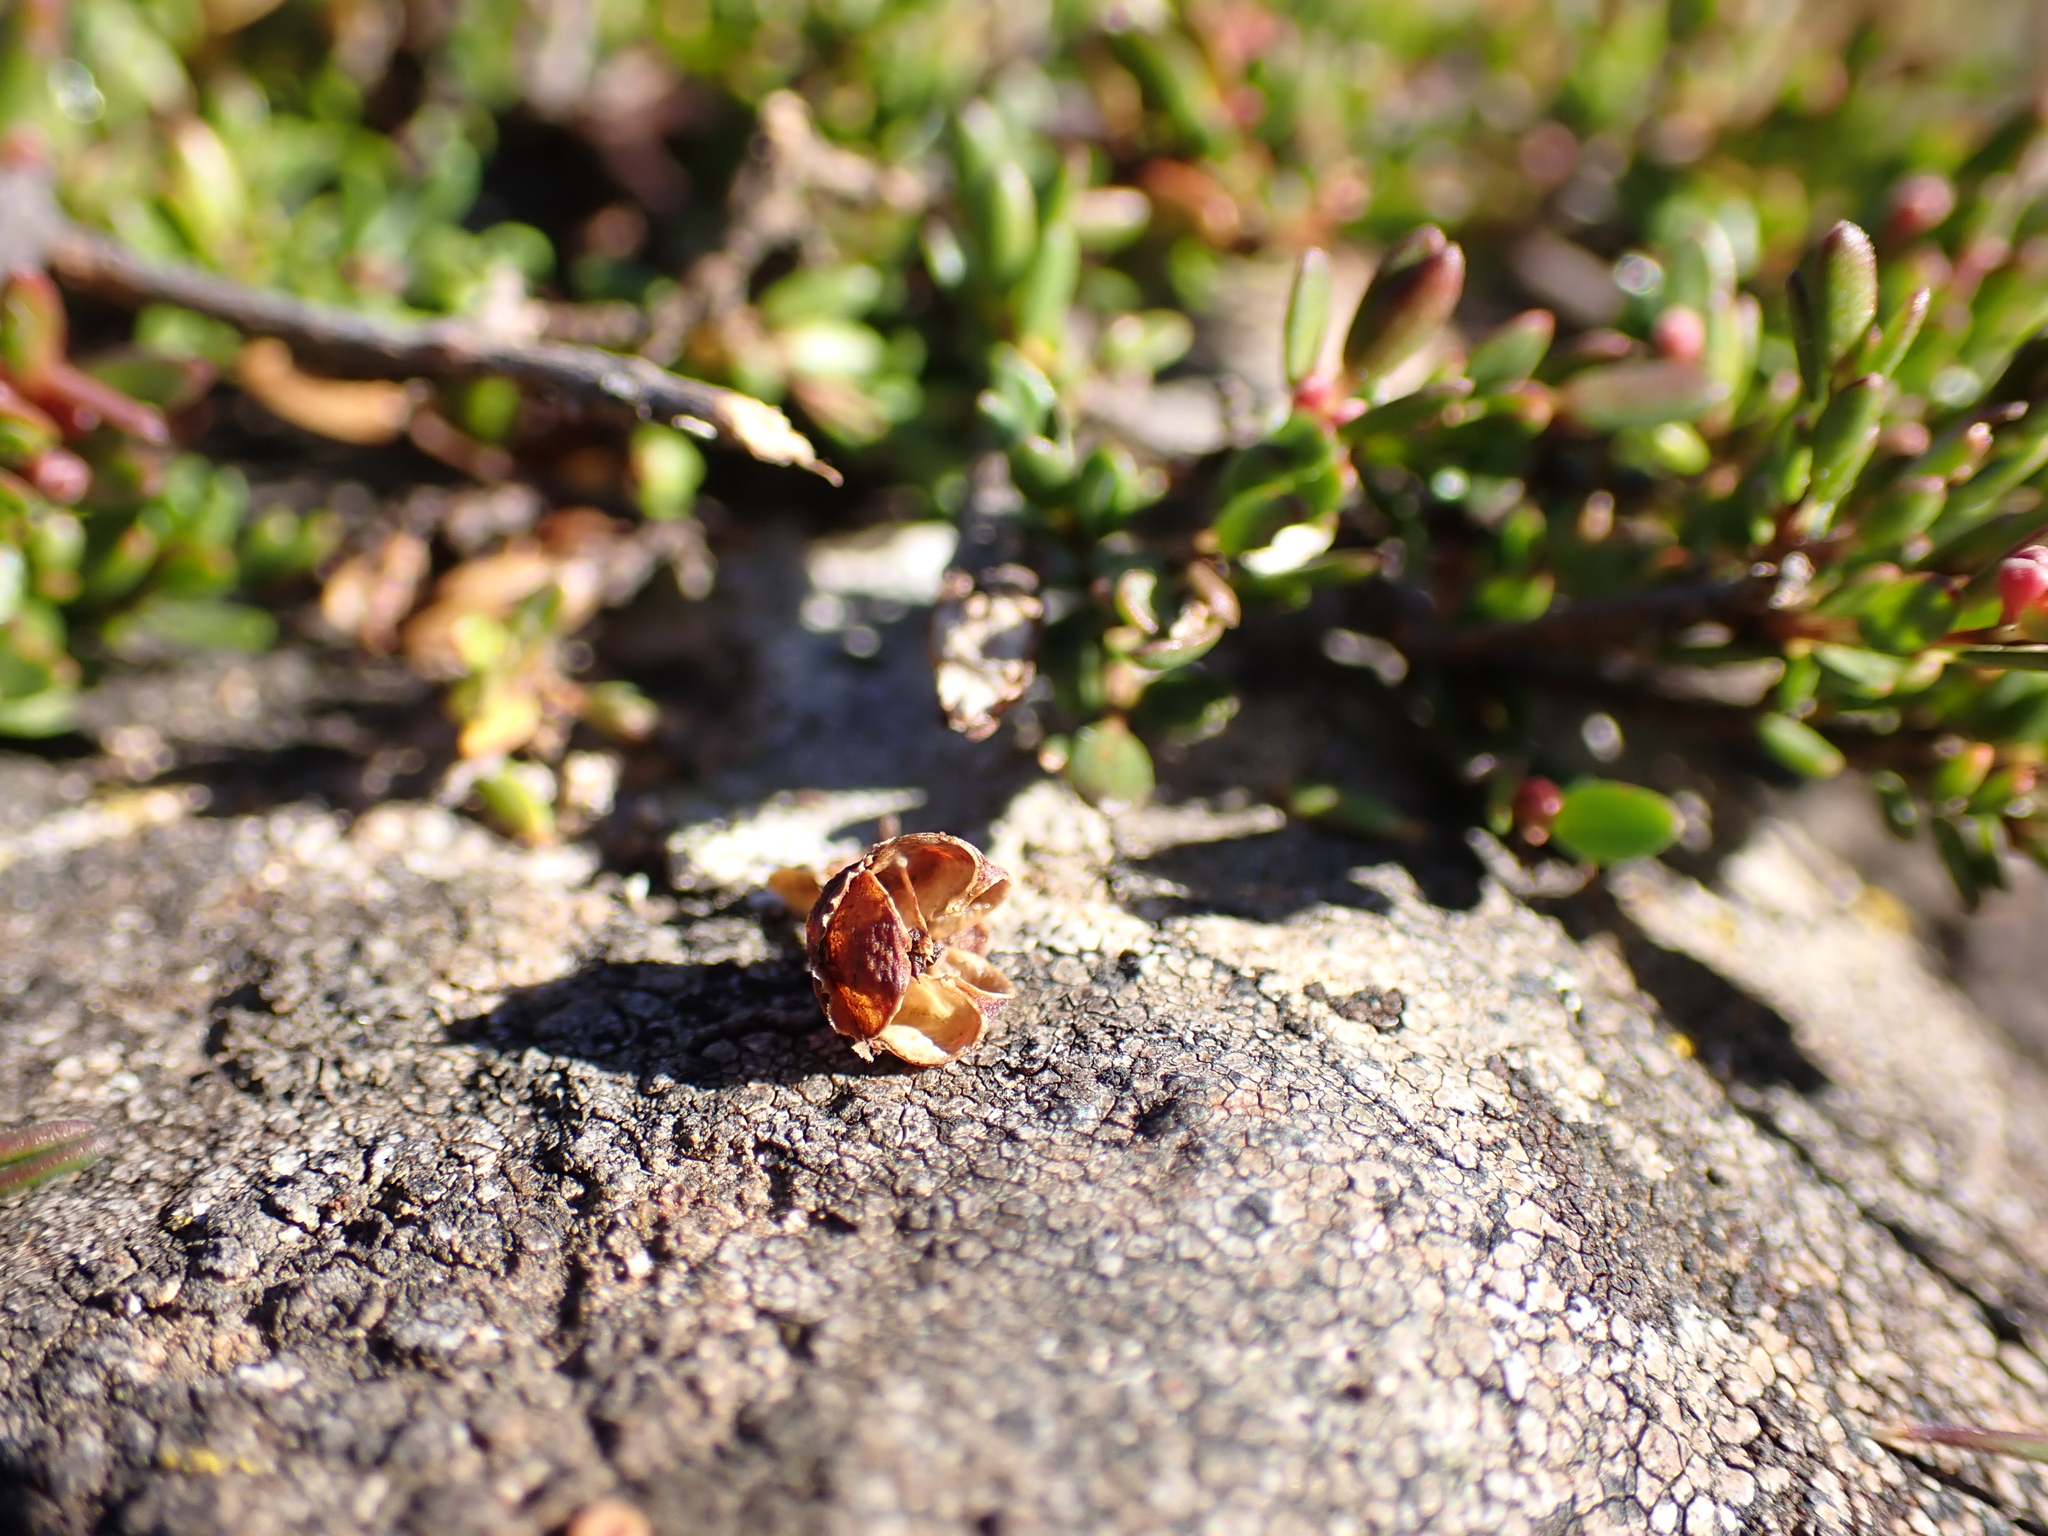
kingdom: Plantae
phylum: Tracheophyta
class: Magnoliopsida
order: Myrtales
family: Myrtaceae
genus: Euryomyrtus
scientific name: Euryomyrtus ramosissima
